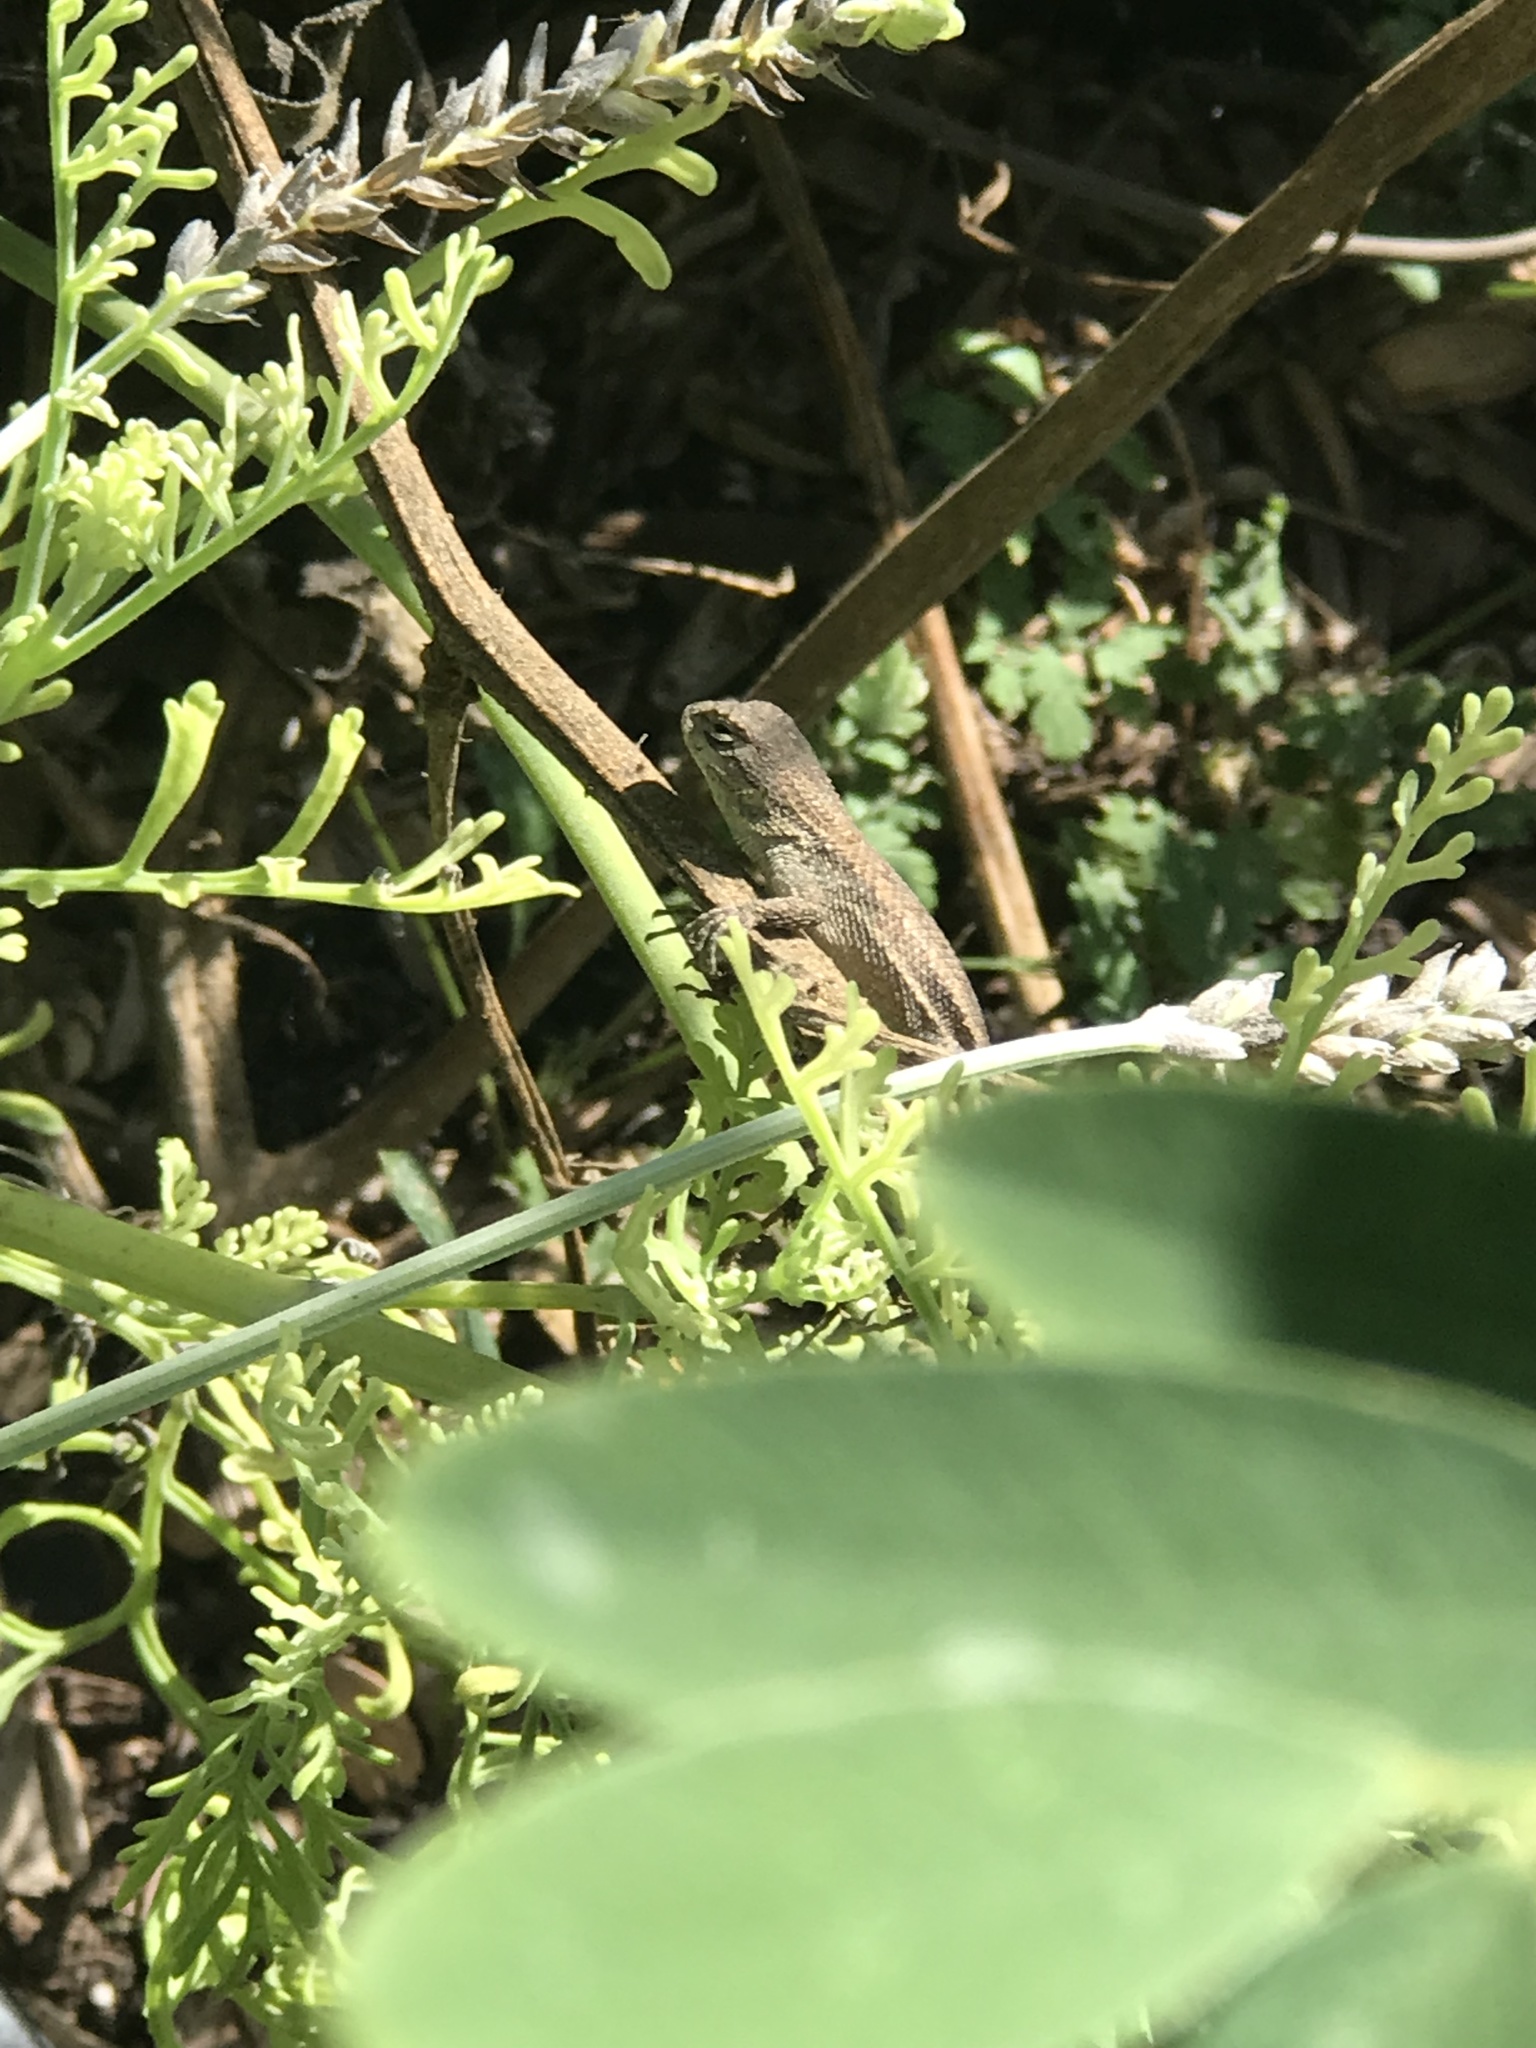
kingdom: Animalia
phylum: Chordata
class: Squamata
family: Phrynosomatidae
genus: Sceloporus
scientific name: Sceloporus occidentalis
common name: Western fence lizard
